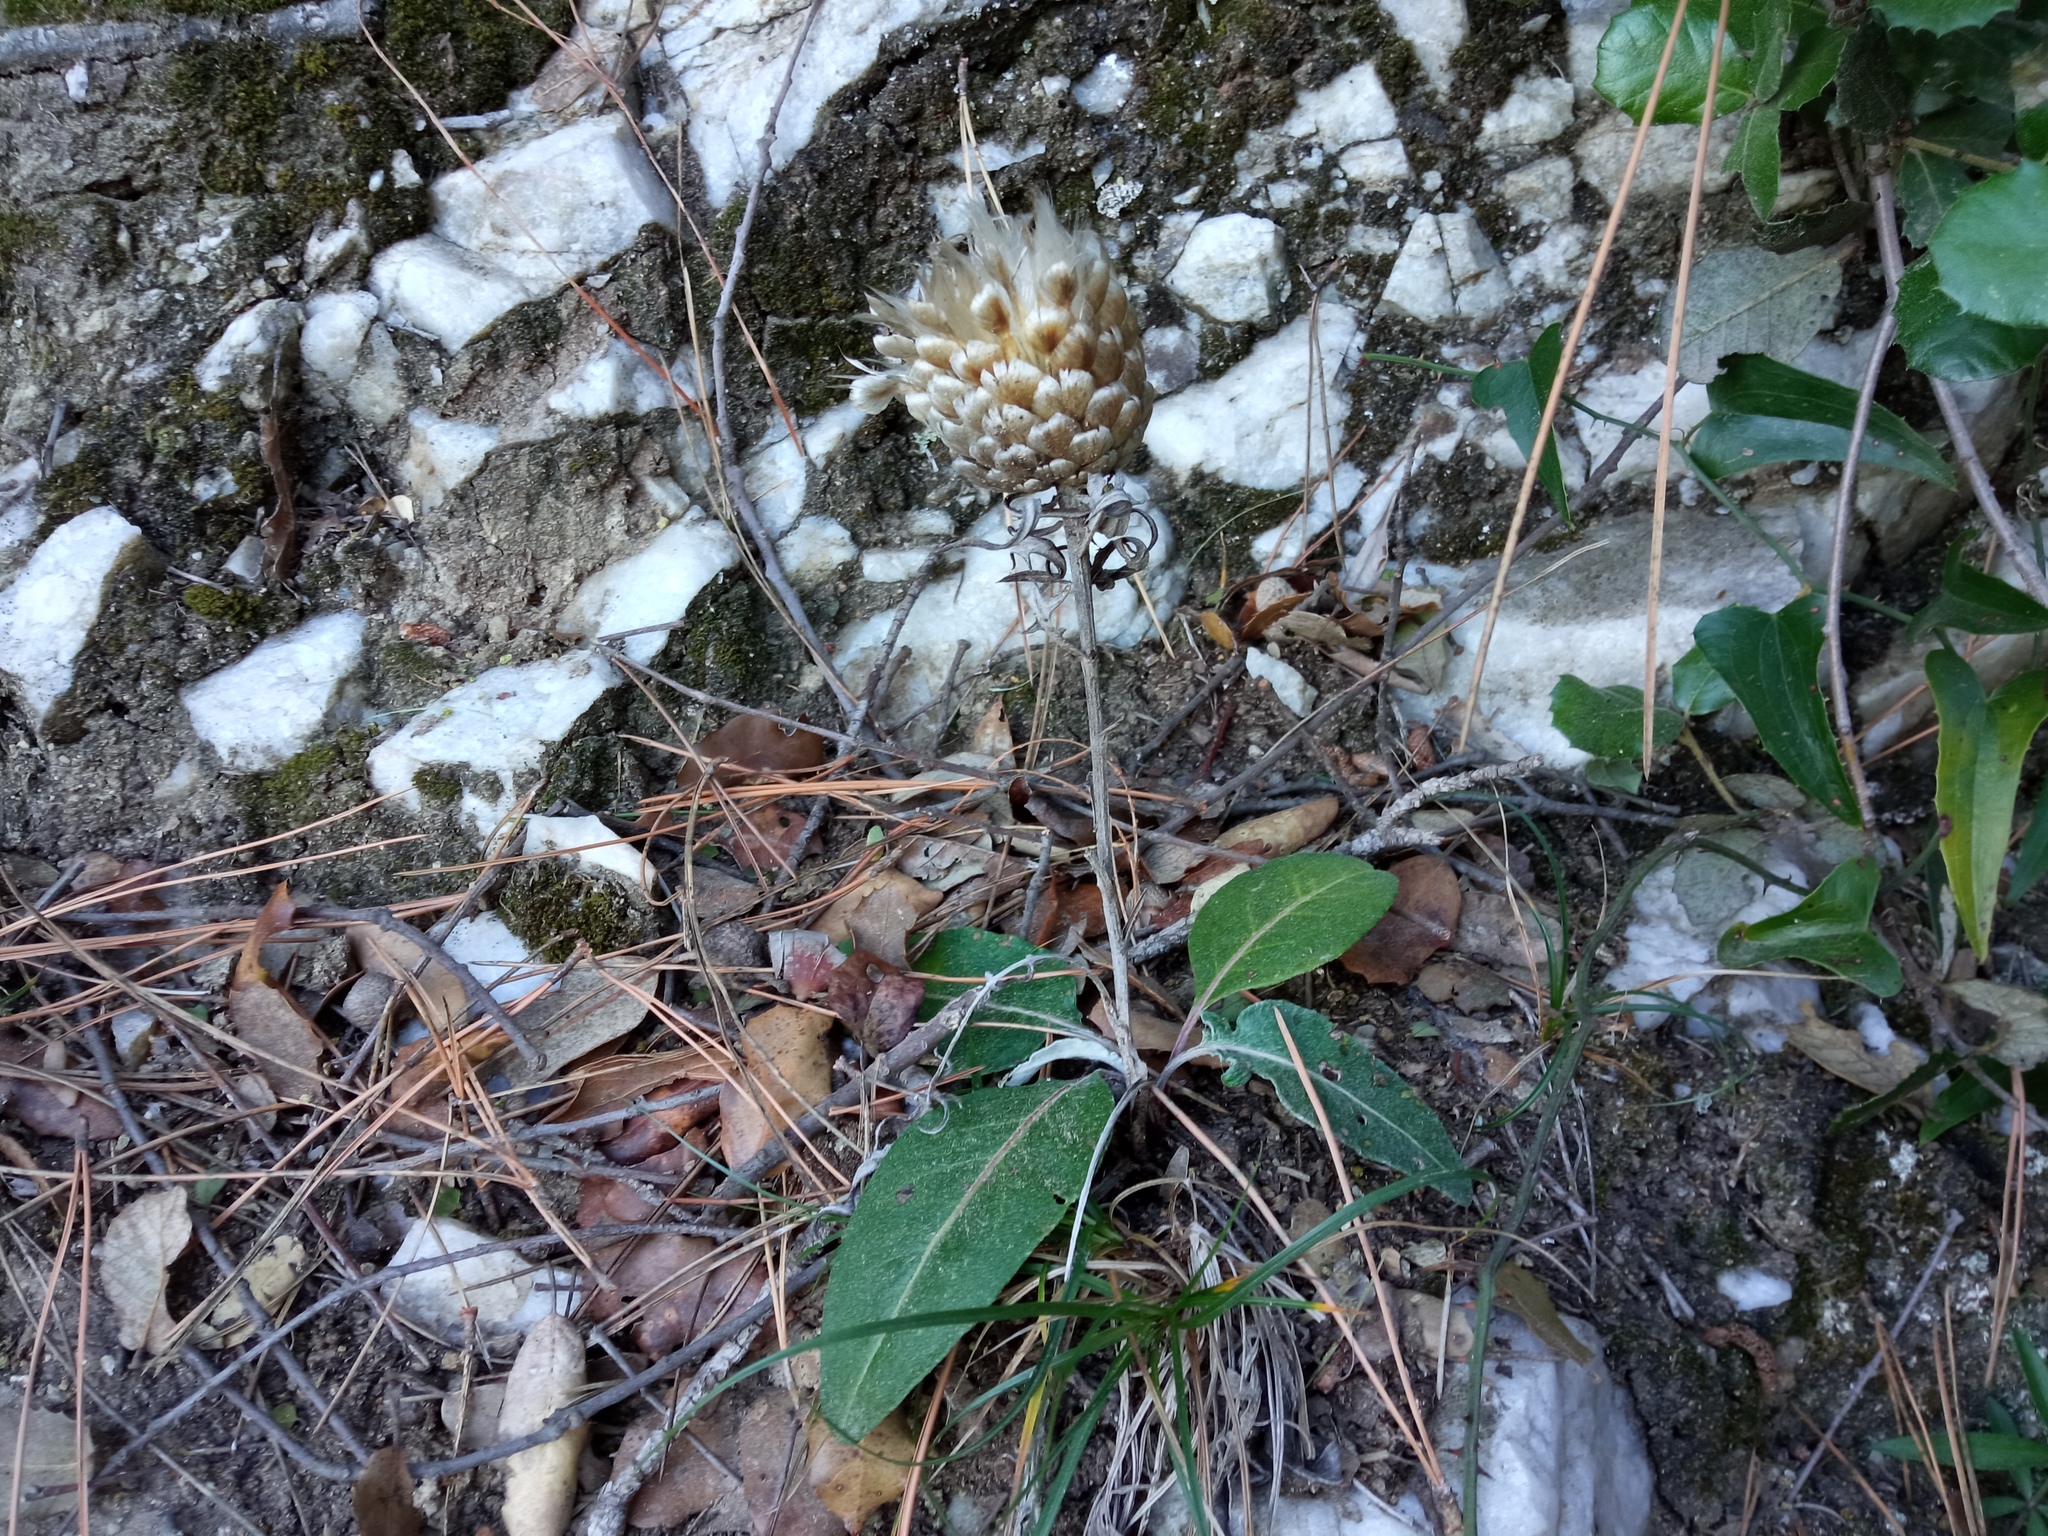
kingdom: Plantae
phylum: Tracheophyta
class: Magnoliopsida
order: Asterales
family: Asteraceae
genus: Leuzea
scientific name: Leuzea conifera
